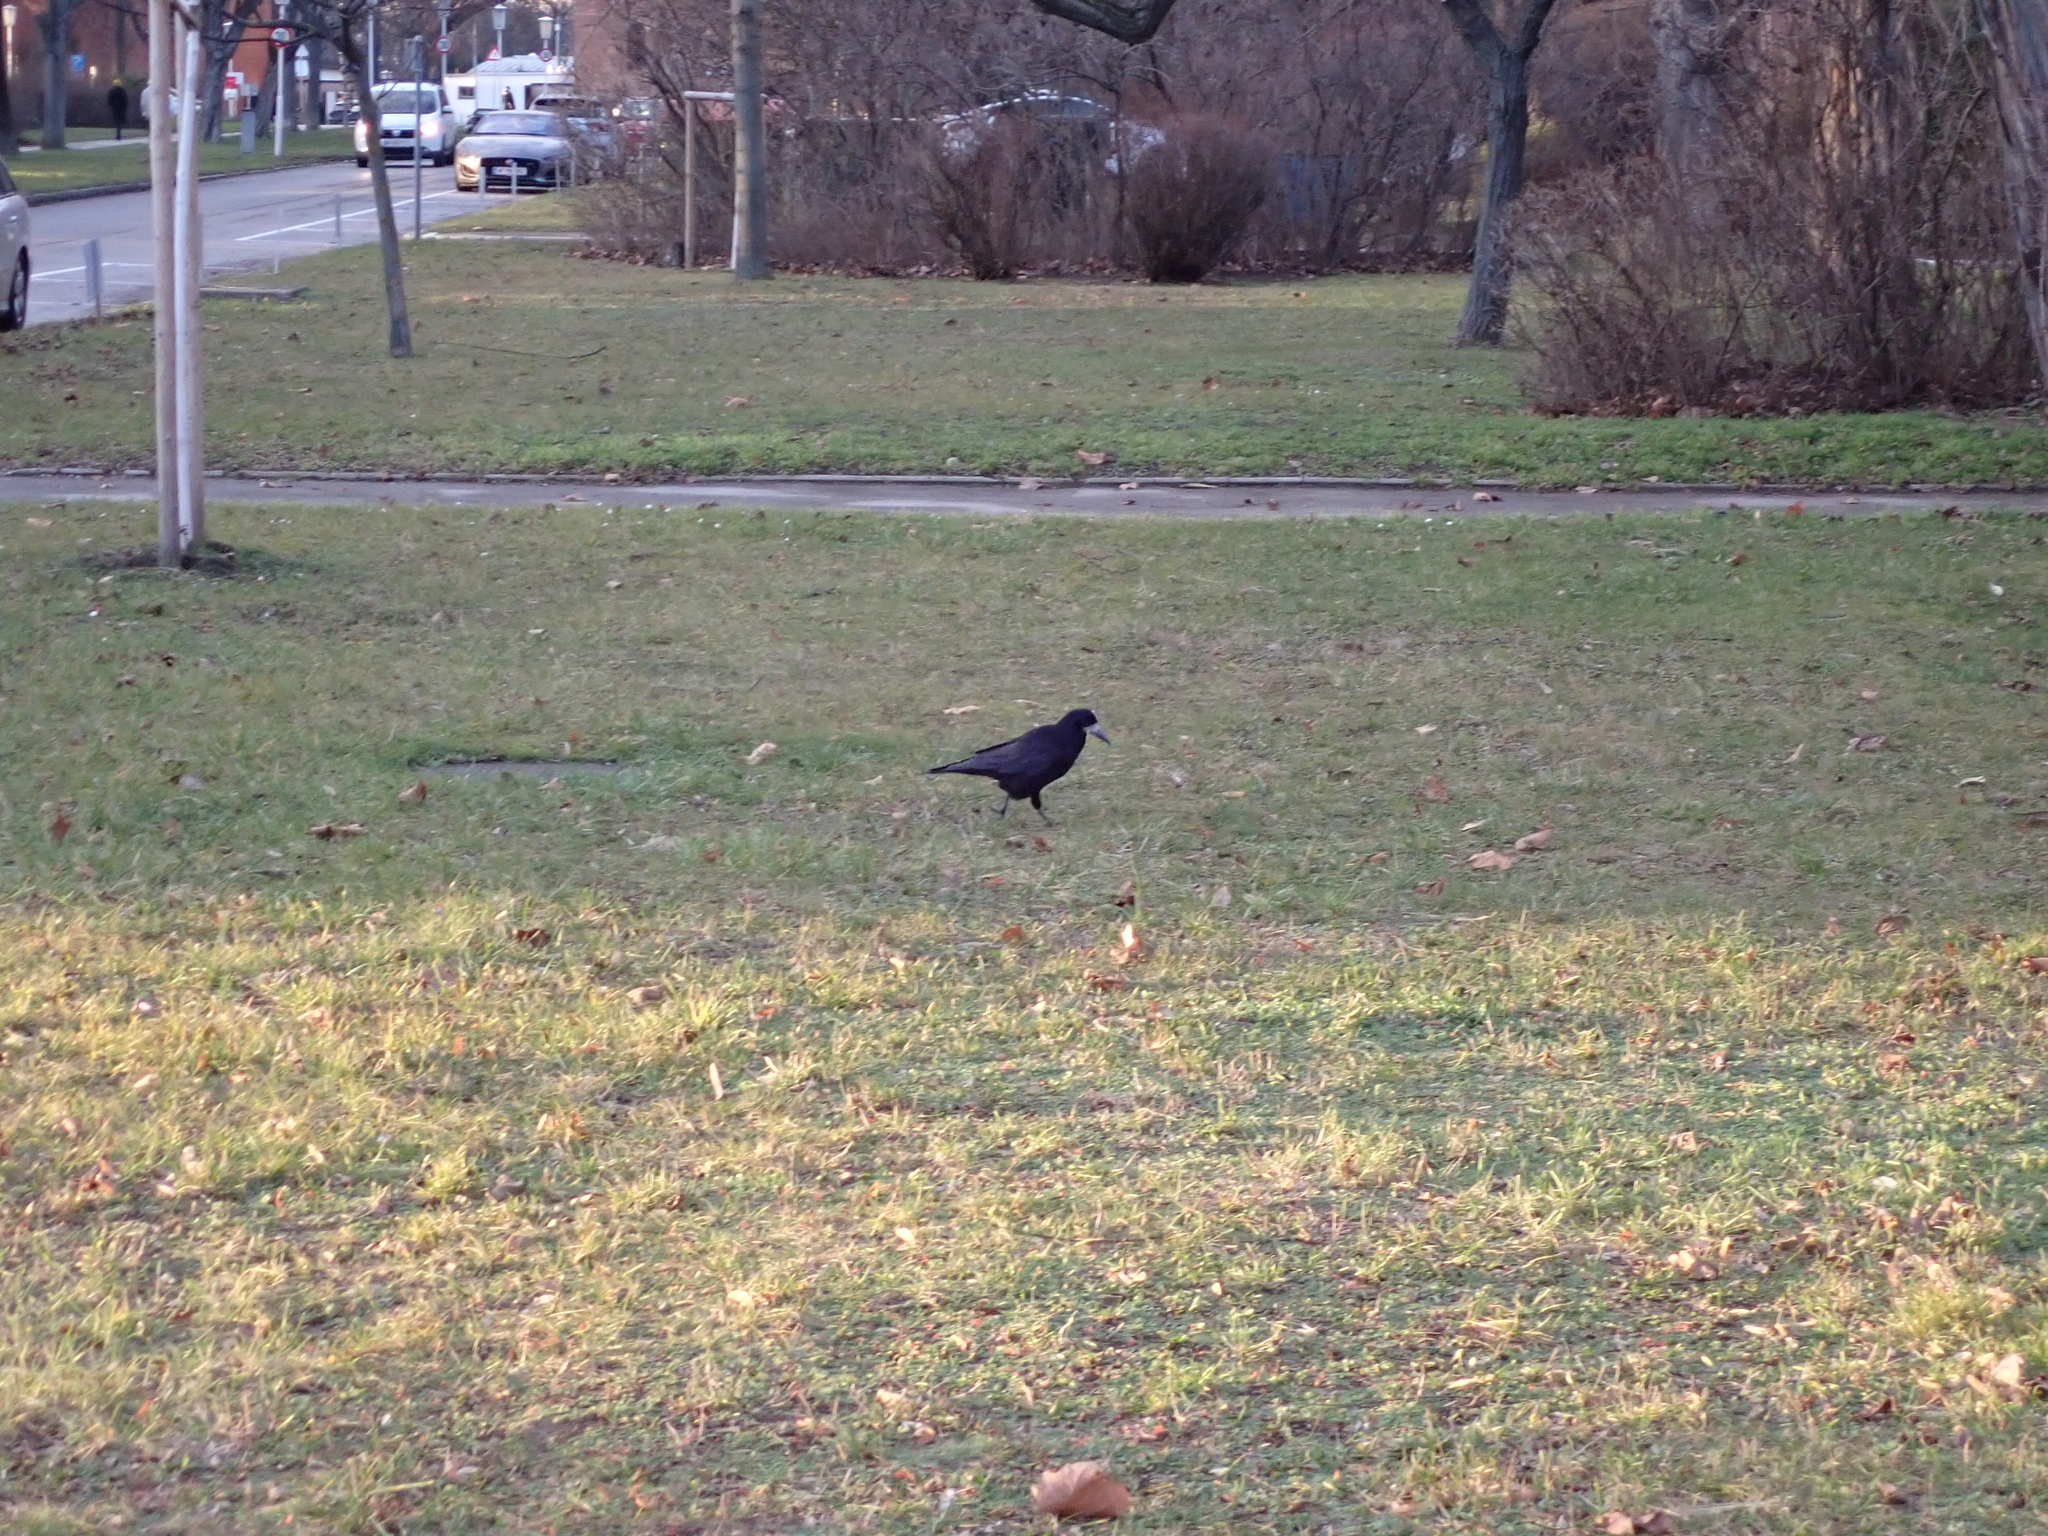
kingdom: Animalia
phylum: Chordata
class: Aves
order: Passeriformes
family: Corvidae
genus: Corvus
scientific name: Corvus frugilegus
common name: Rook
